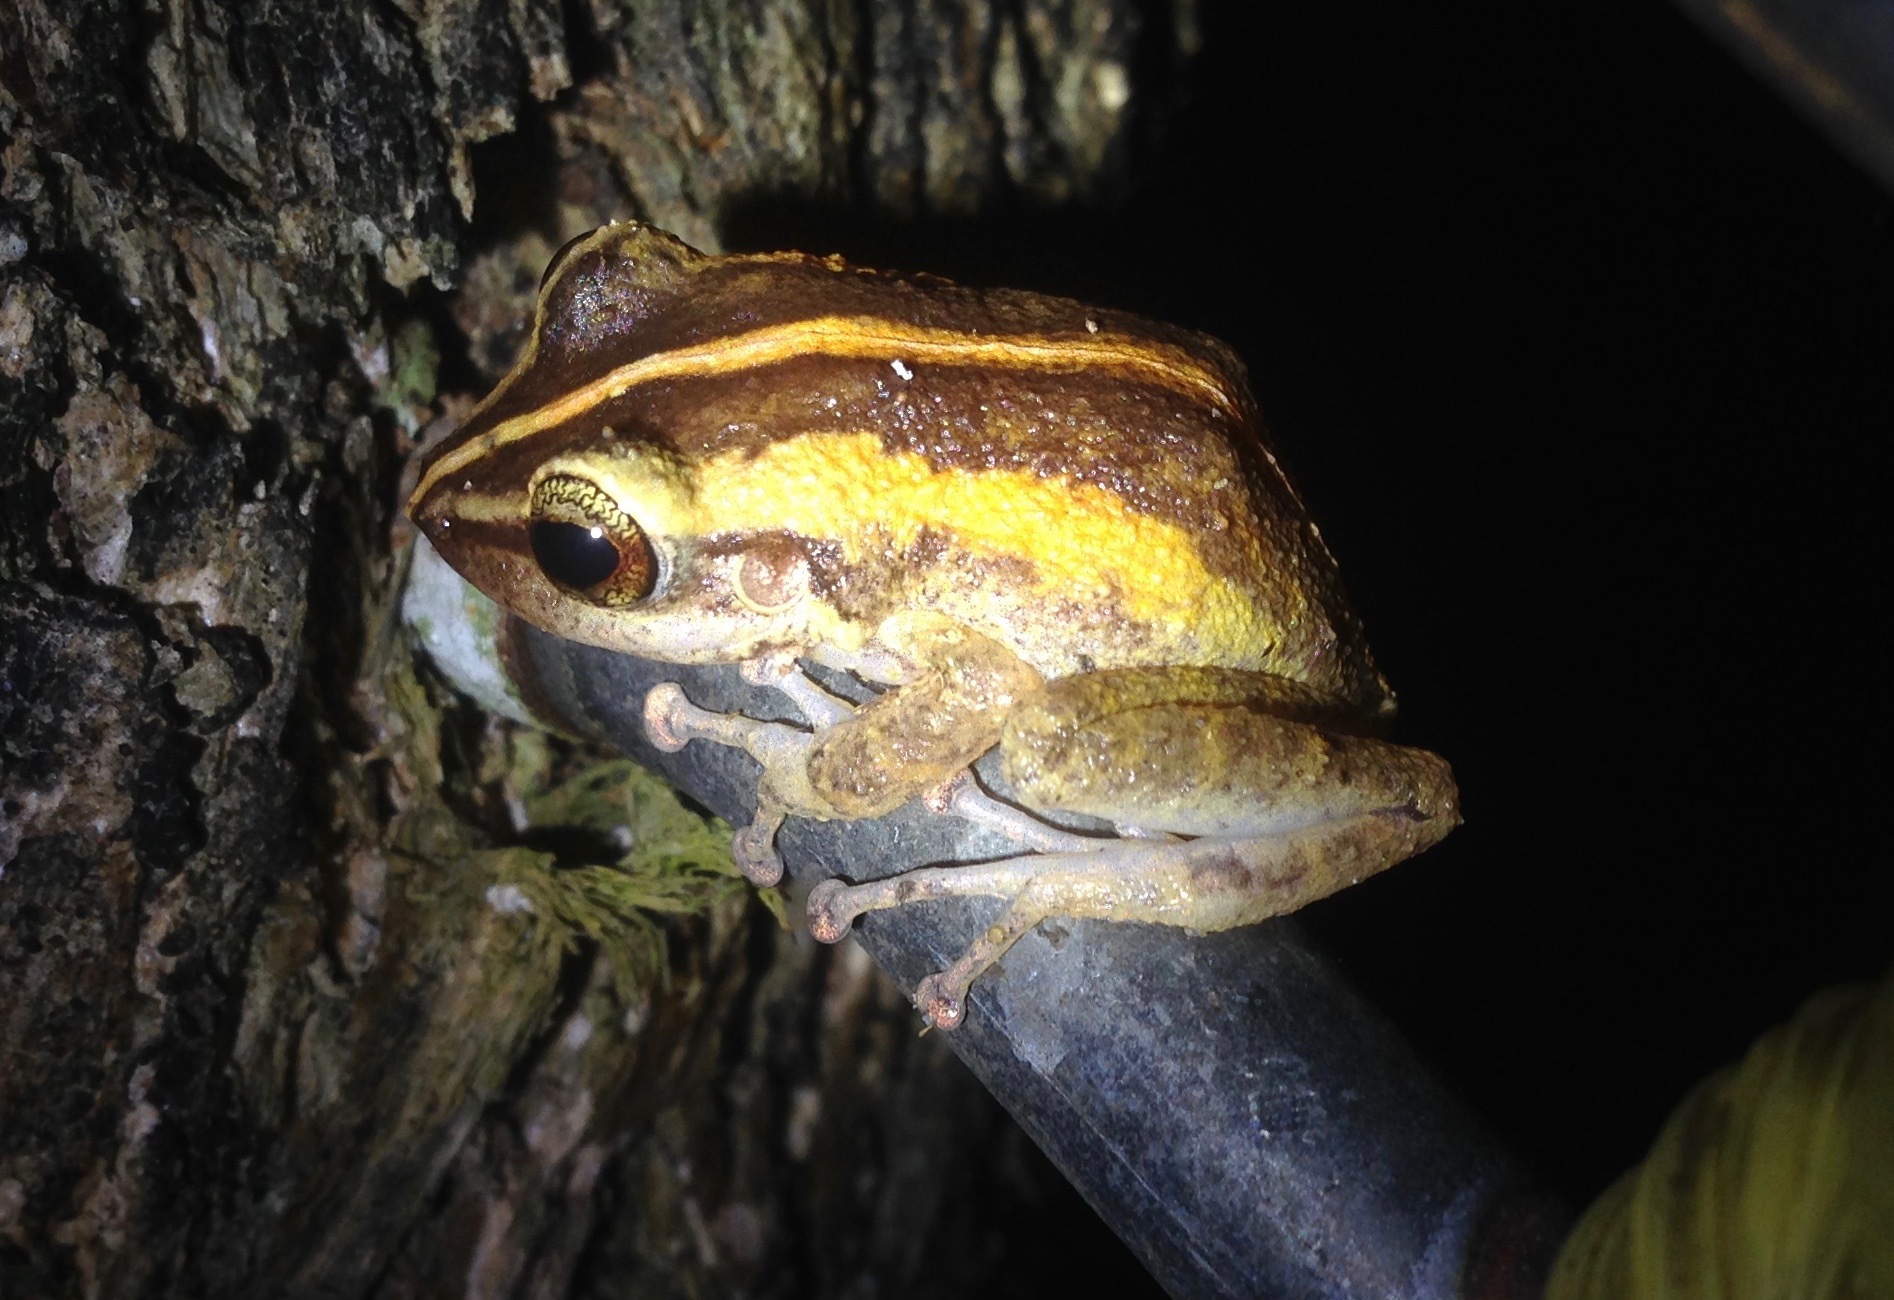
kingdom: Animalia
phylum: Chordata
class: Amphibia
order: Anura
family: Eleutherodactylidae
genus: Eleutherodactylus
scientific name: Eleutherodactylus coqui
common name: Coqui frog
